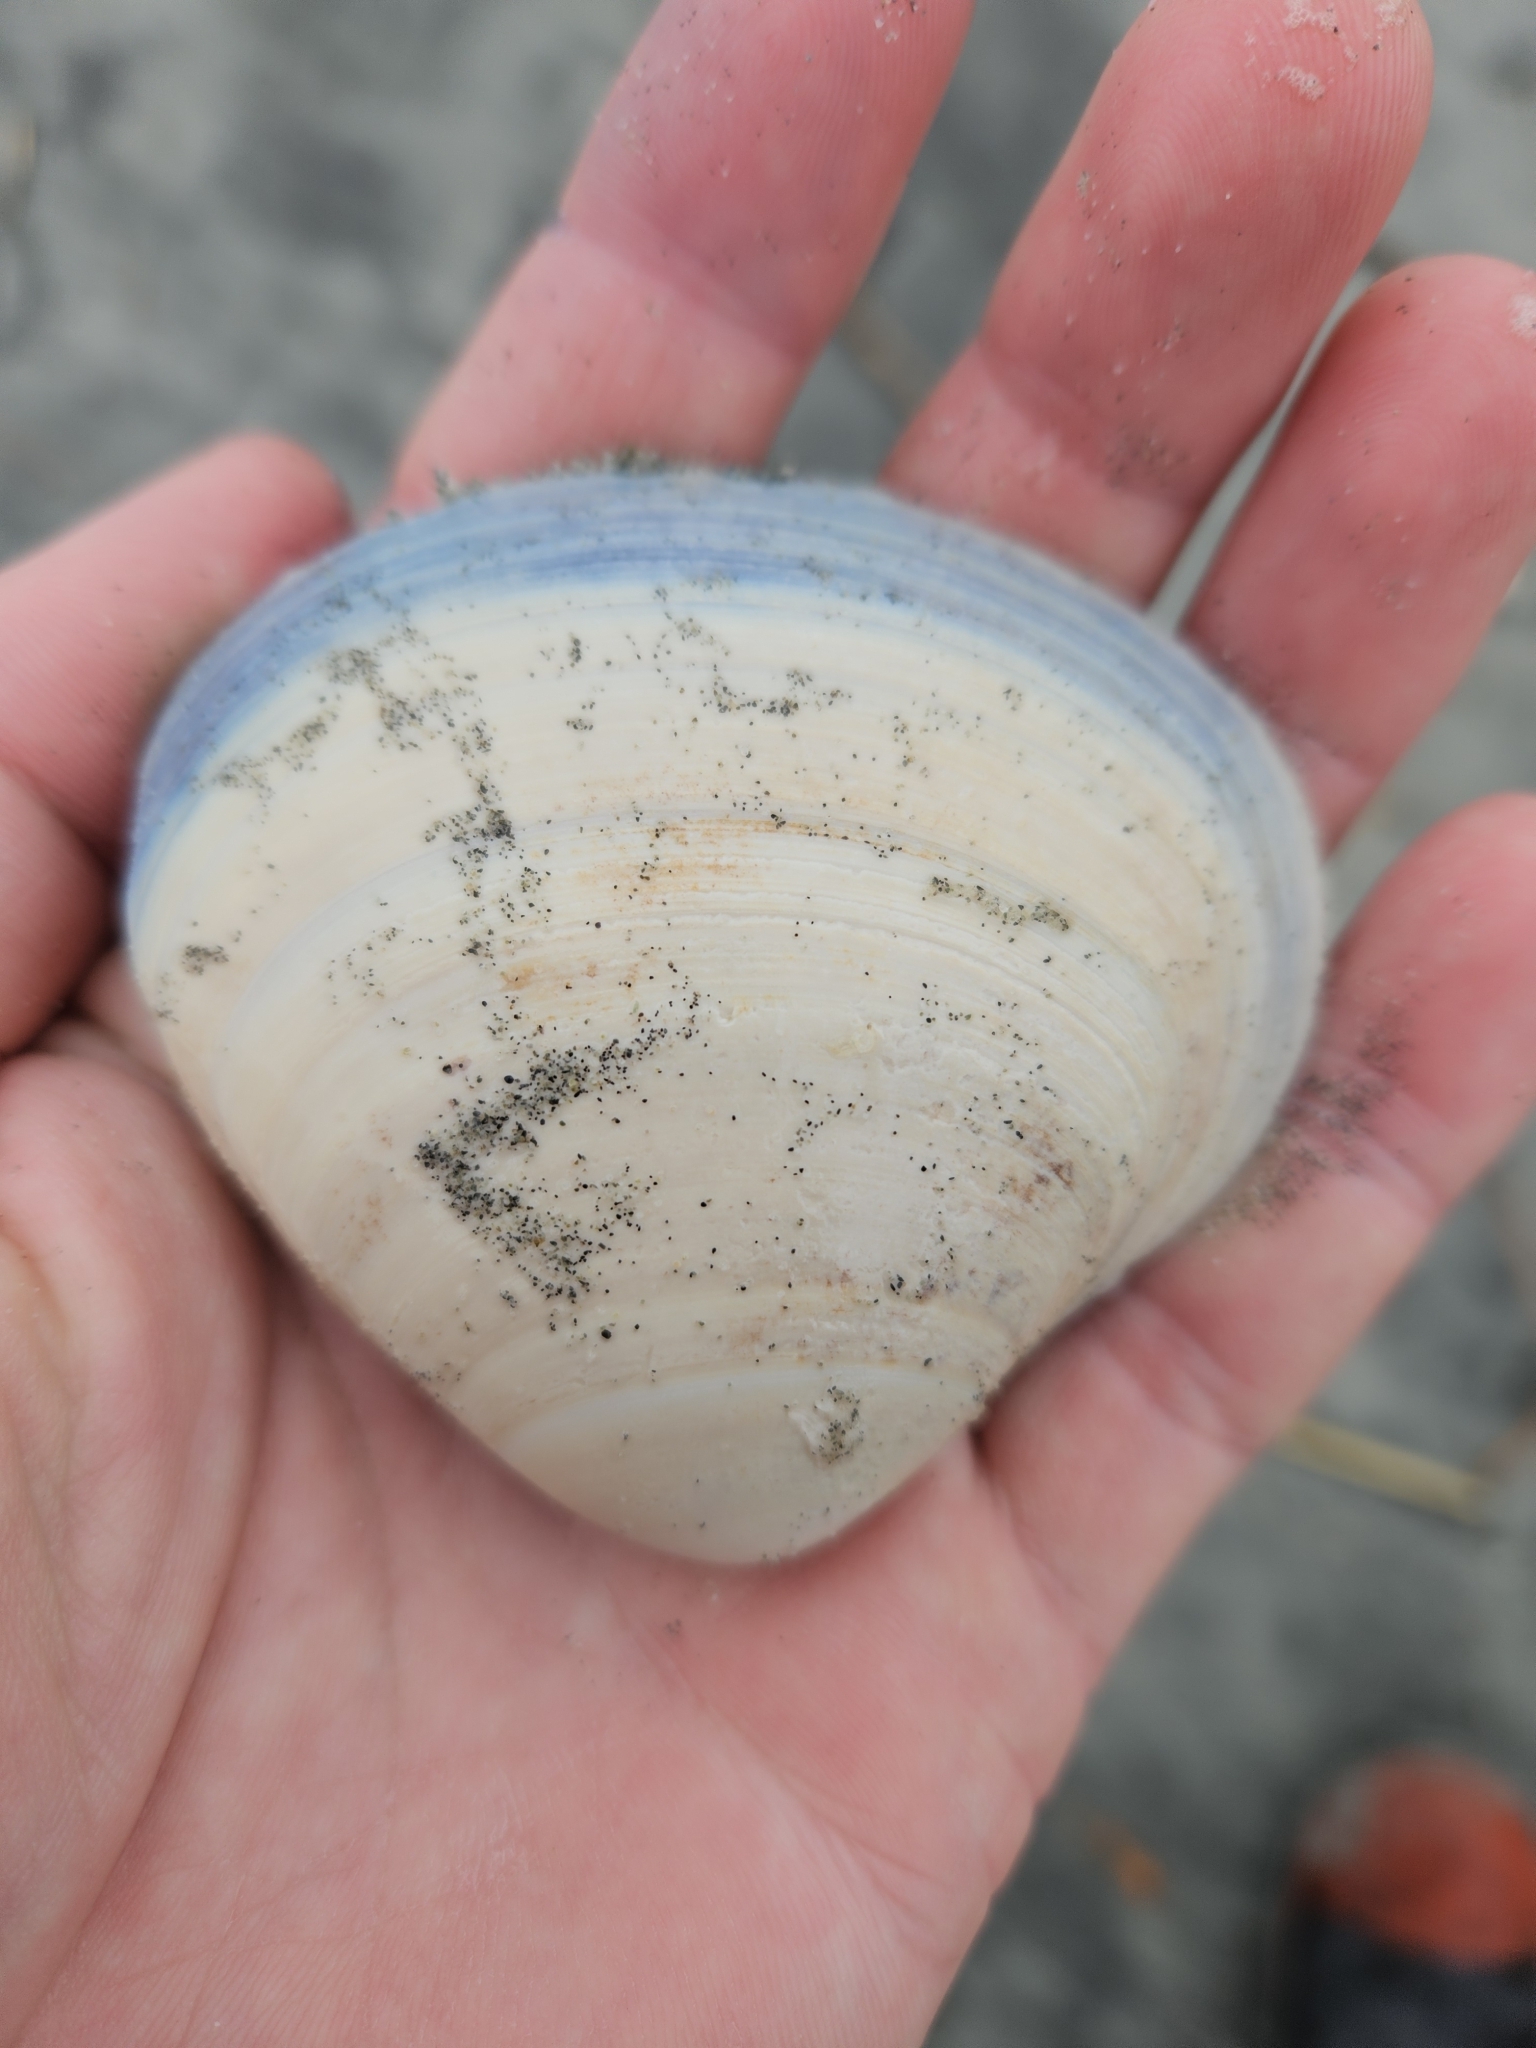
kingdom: Animalia
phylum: Mollusca
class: Bivalvia
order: Venerida
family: Mactridae
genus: Spisula
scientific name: Spisula discors
